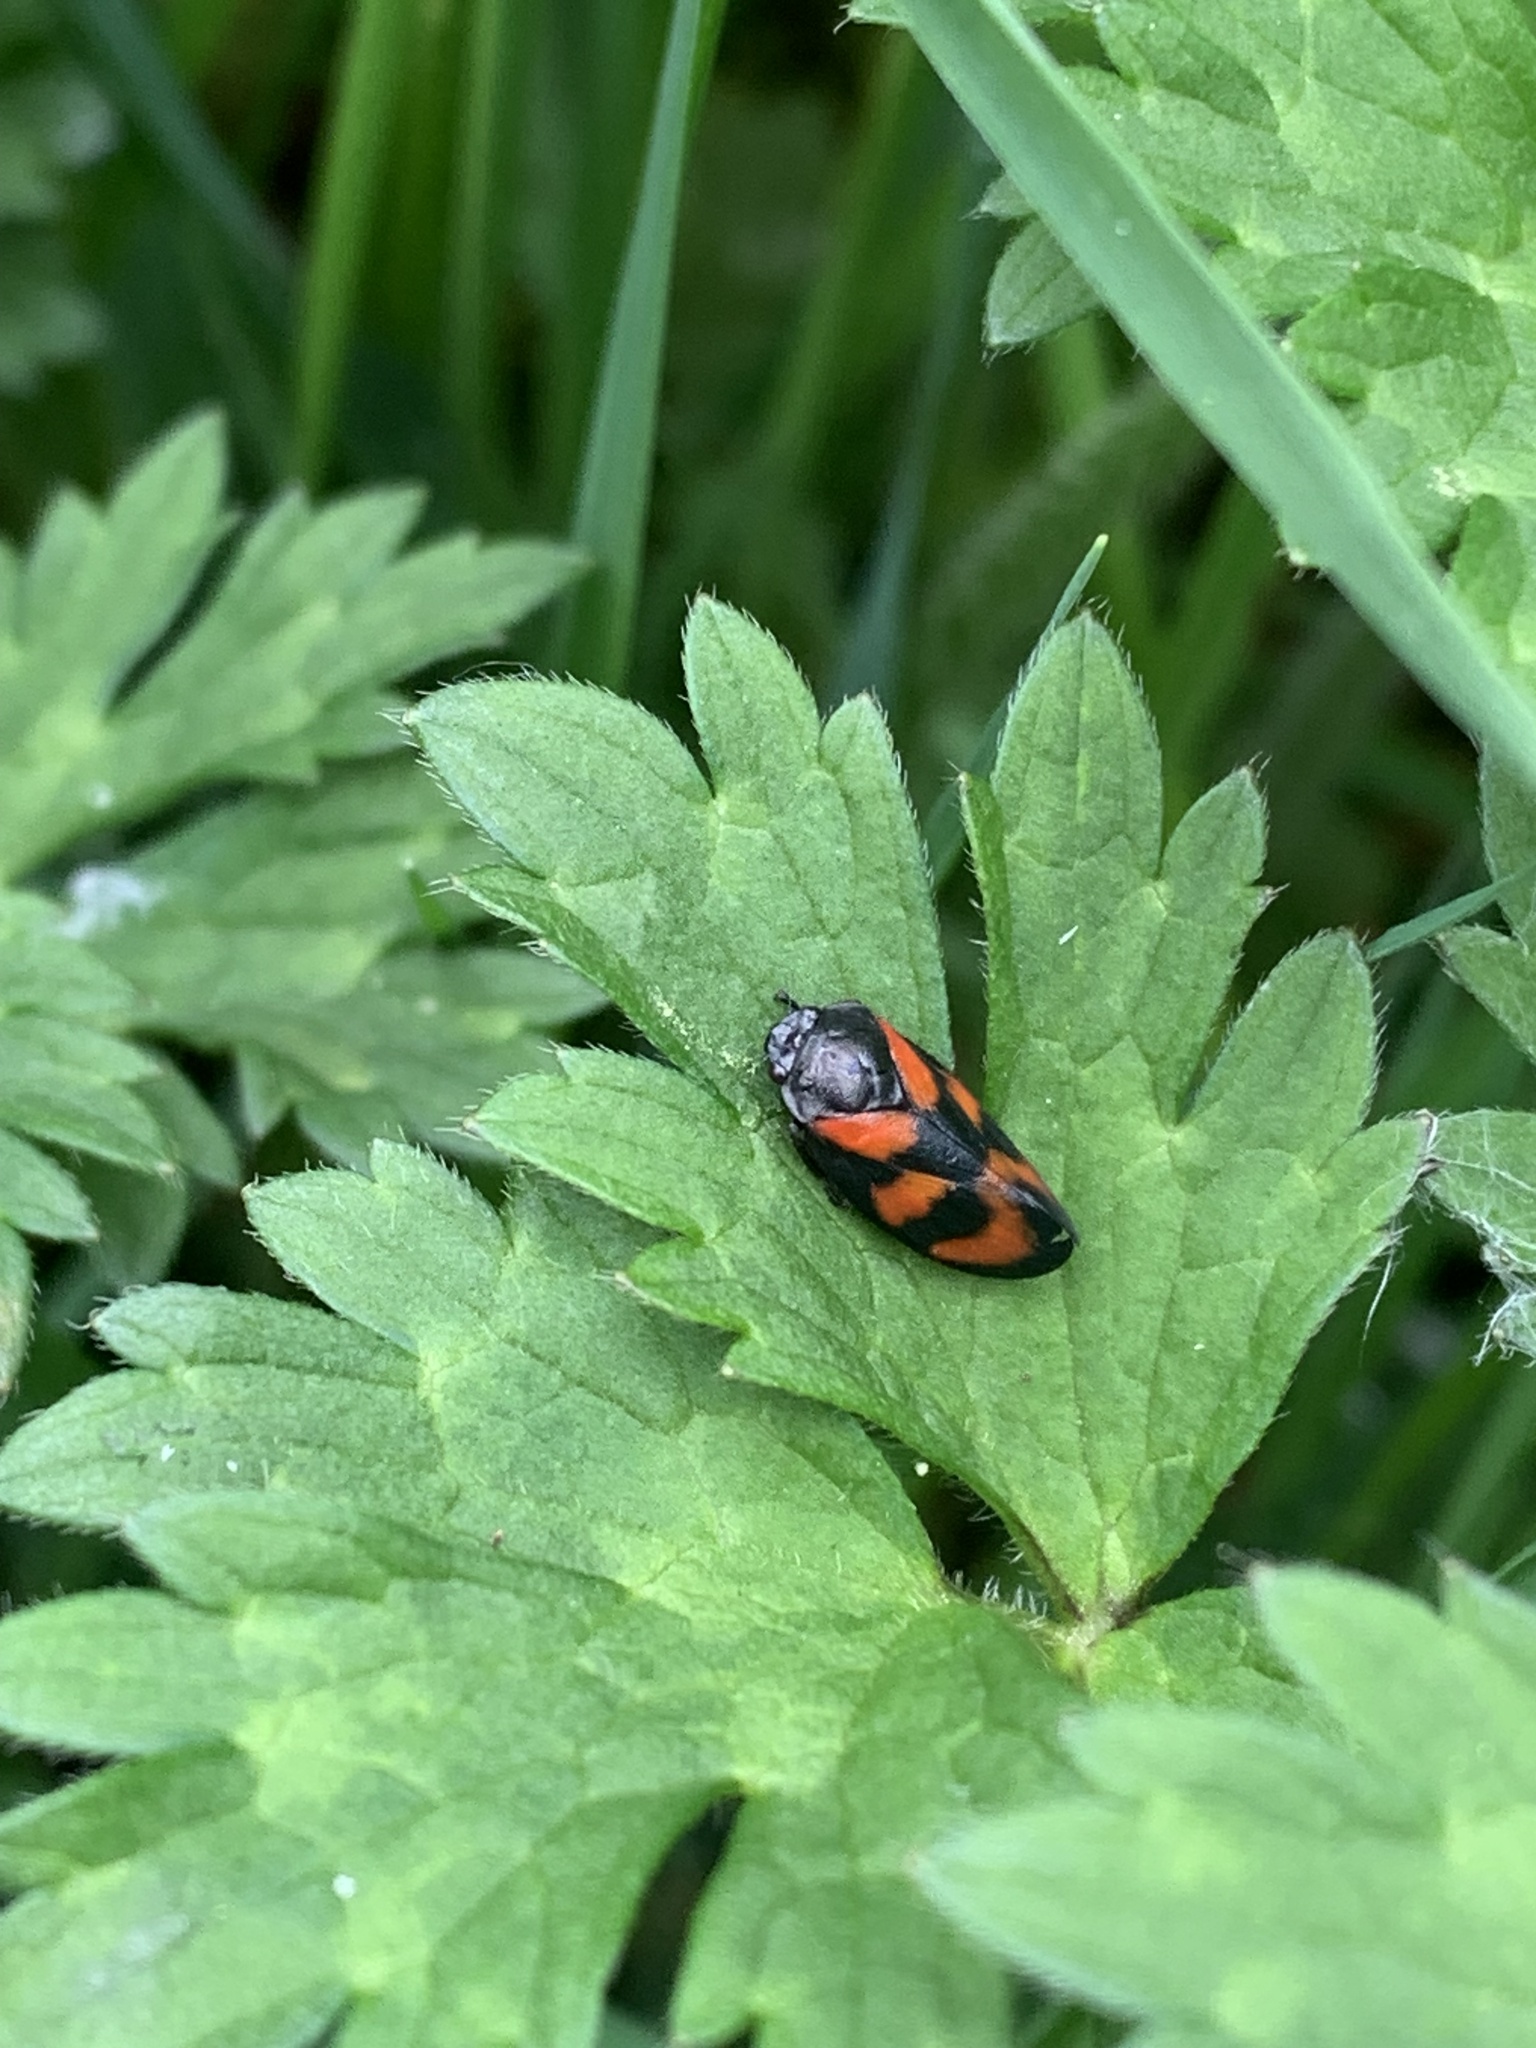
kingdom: Animalia
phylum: Arthropoda
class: Insecta
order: Hemiptera
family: Cercopidae
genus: Cercopis
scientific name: Cercopis vulnerata
